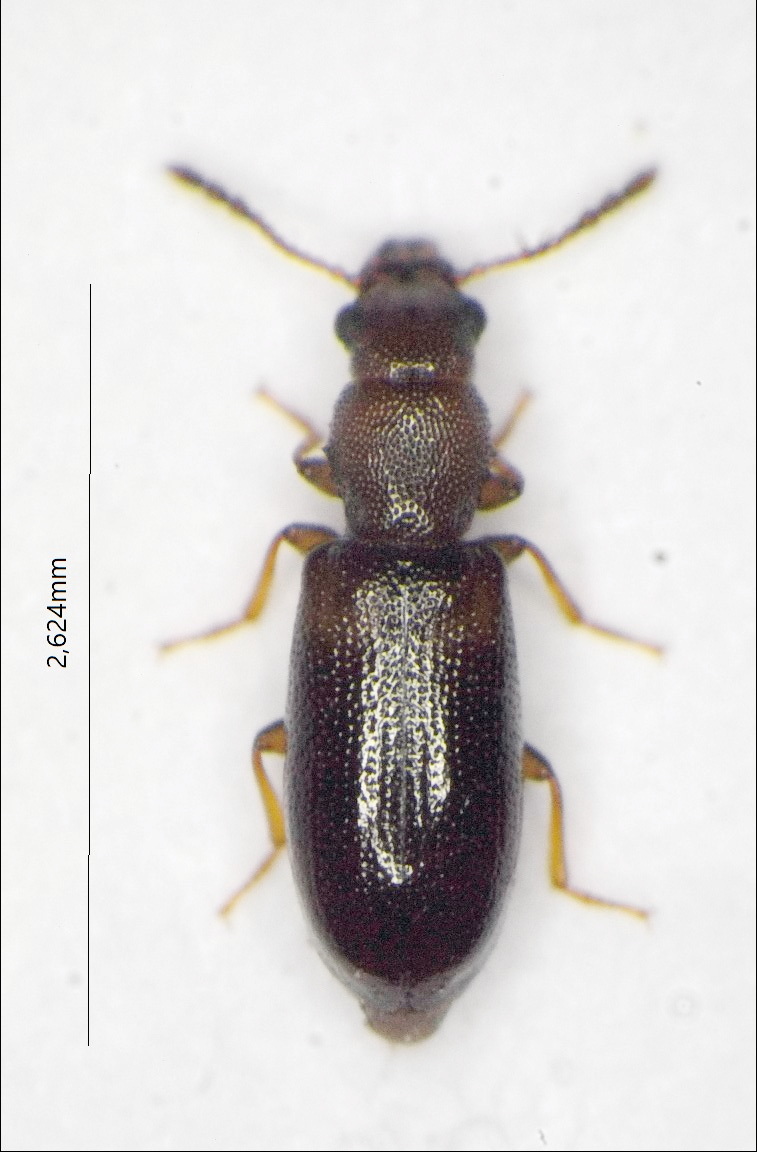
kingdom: Animalia
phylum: Arthropoda
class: Insecta
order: Coleoptera
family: Salpingidae
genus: Lissodema
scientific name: Lissodema denticolle
